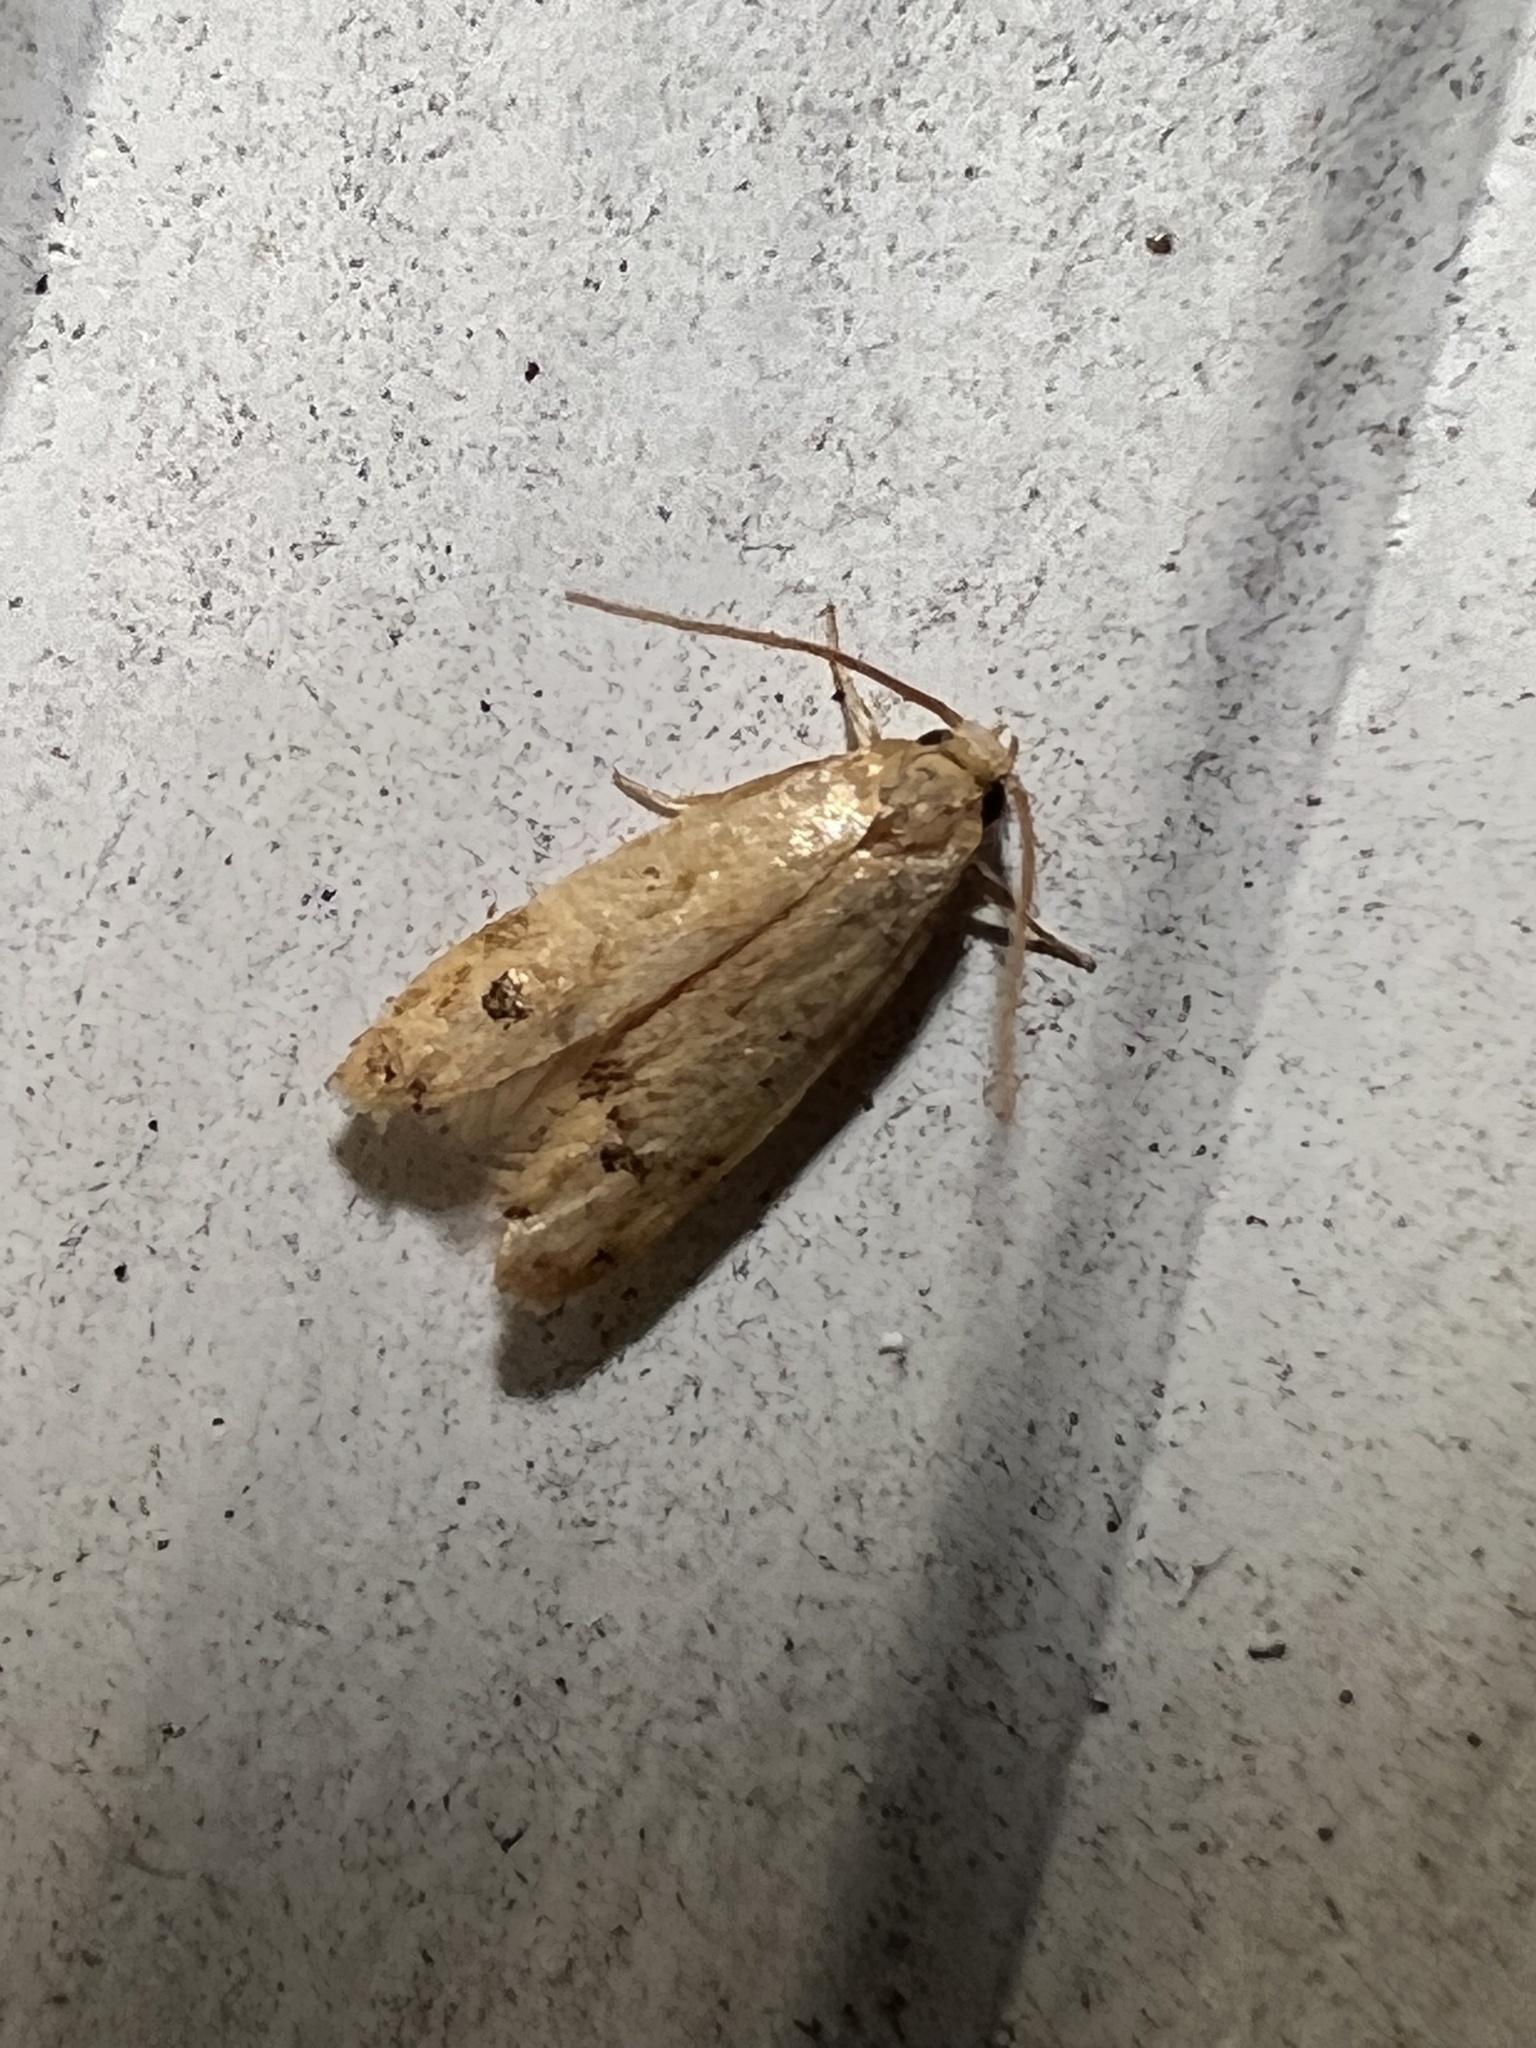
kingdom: Animalia
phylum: Arthropoda
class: Insecta
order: Lepidoptera
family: Autostichidae
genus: Gerdana
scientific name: Gerdana caritella
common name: Gerdana moth
